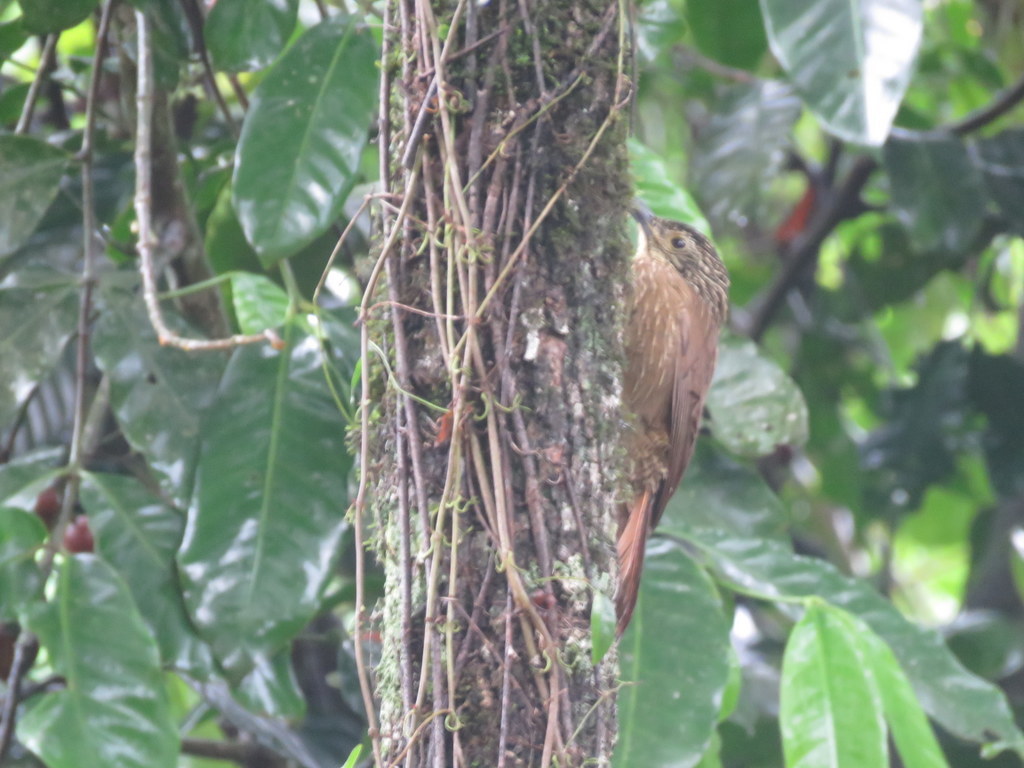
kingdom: Animalia
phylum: Chordata
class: Aves
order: Passeriformes
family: Furnariidae
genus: Dendrocolaptes
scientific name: Dendrocolaptes platyrostris
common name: Planalto woodcreeper
